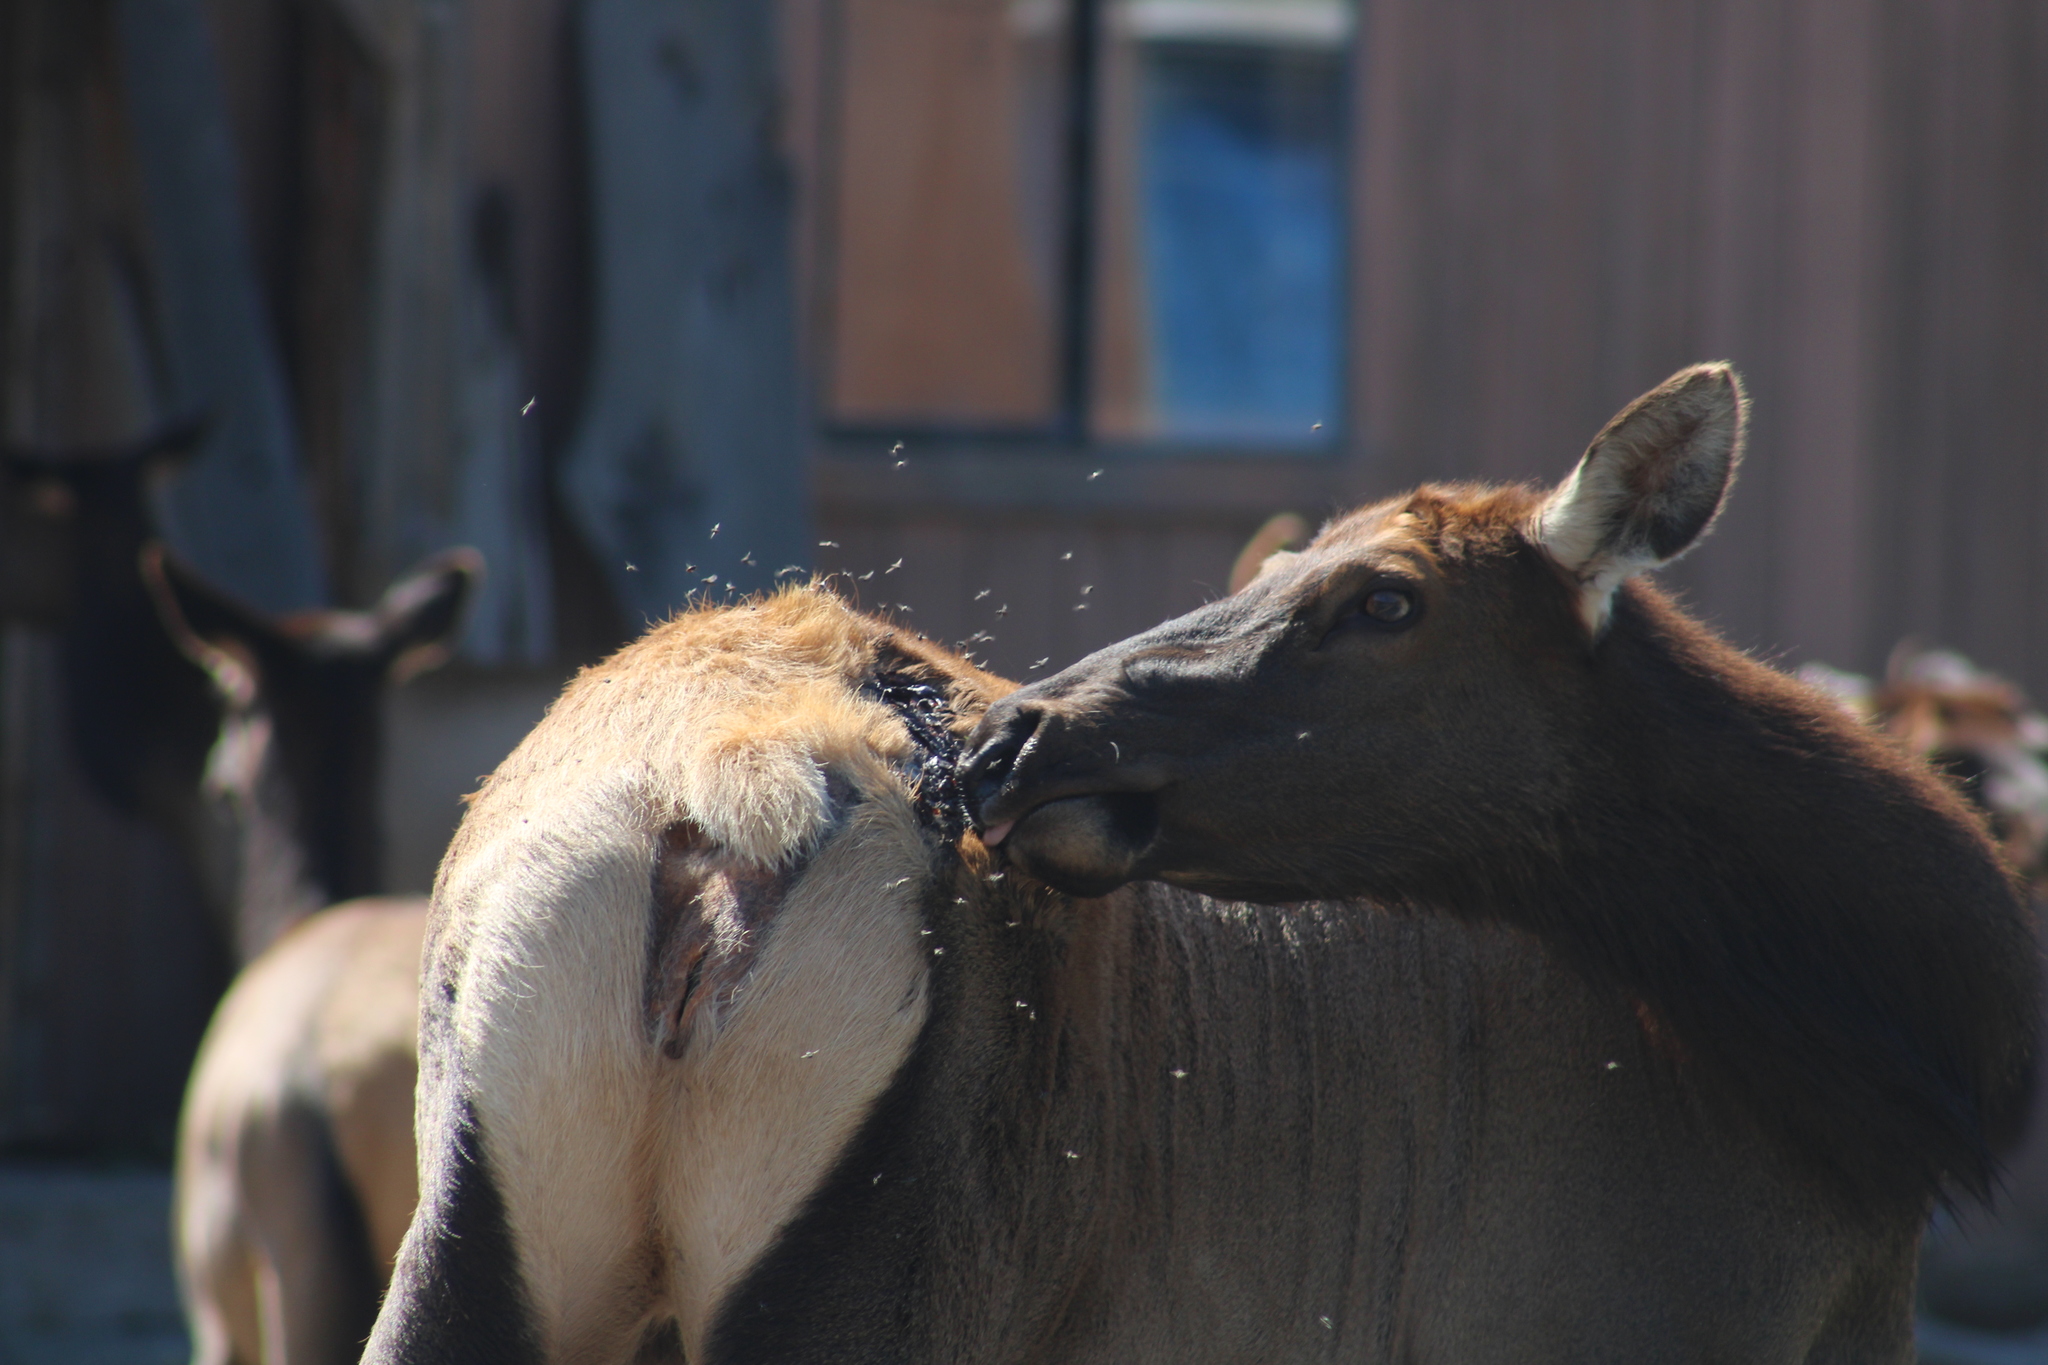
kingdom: Animalia
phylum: Chordata
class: Mammalia
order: Artiodactyla
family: Cervidae
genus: Cervus
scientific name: Cervus elaphus
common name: Red deer
